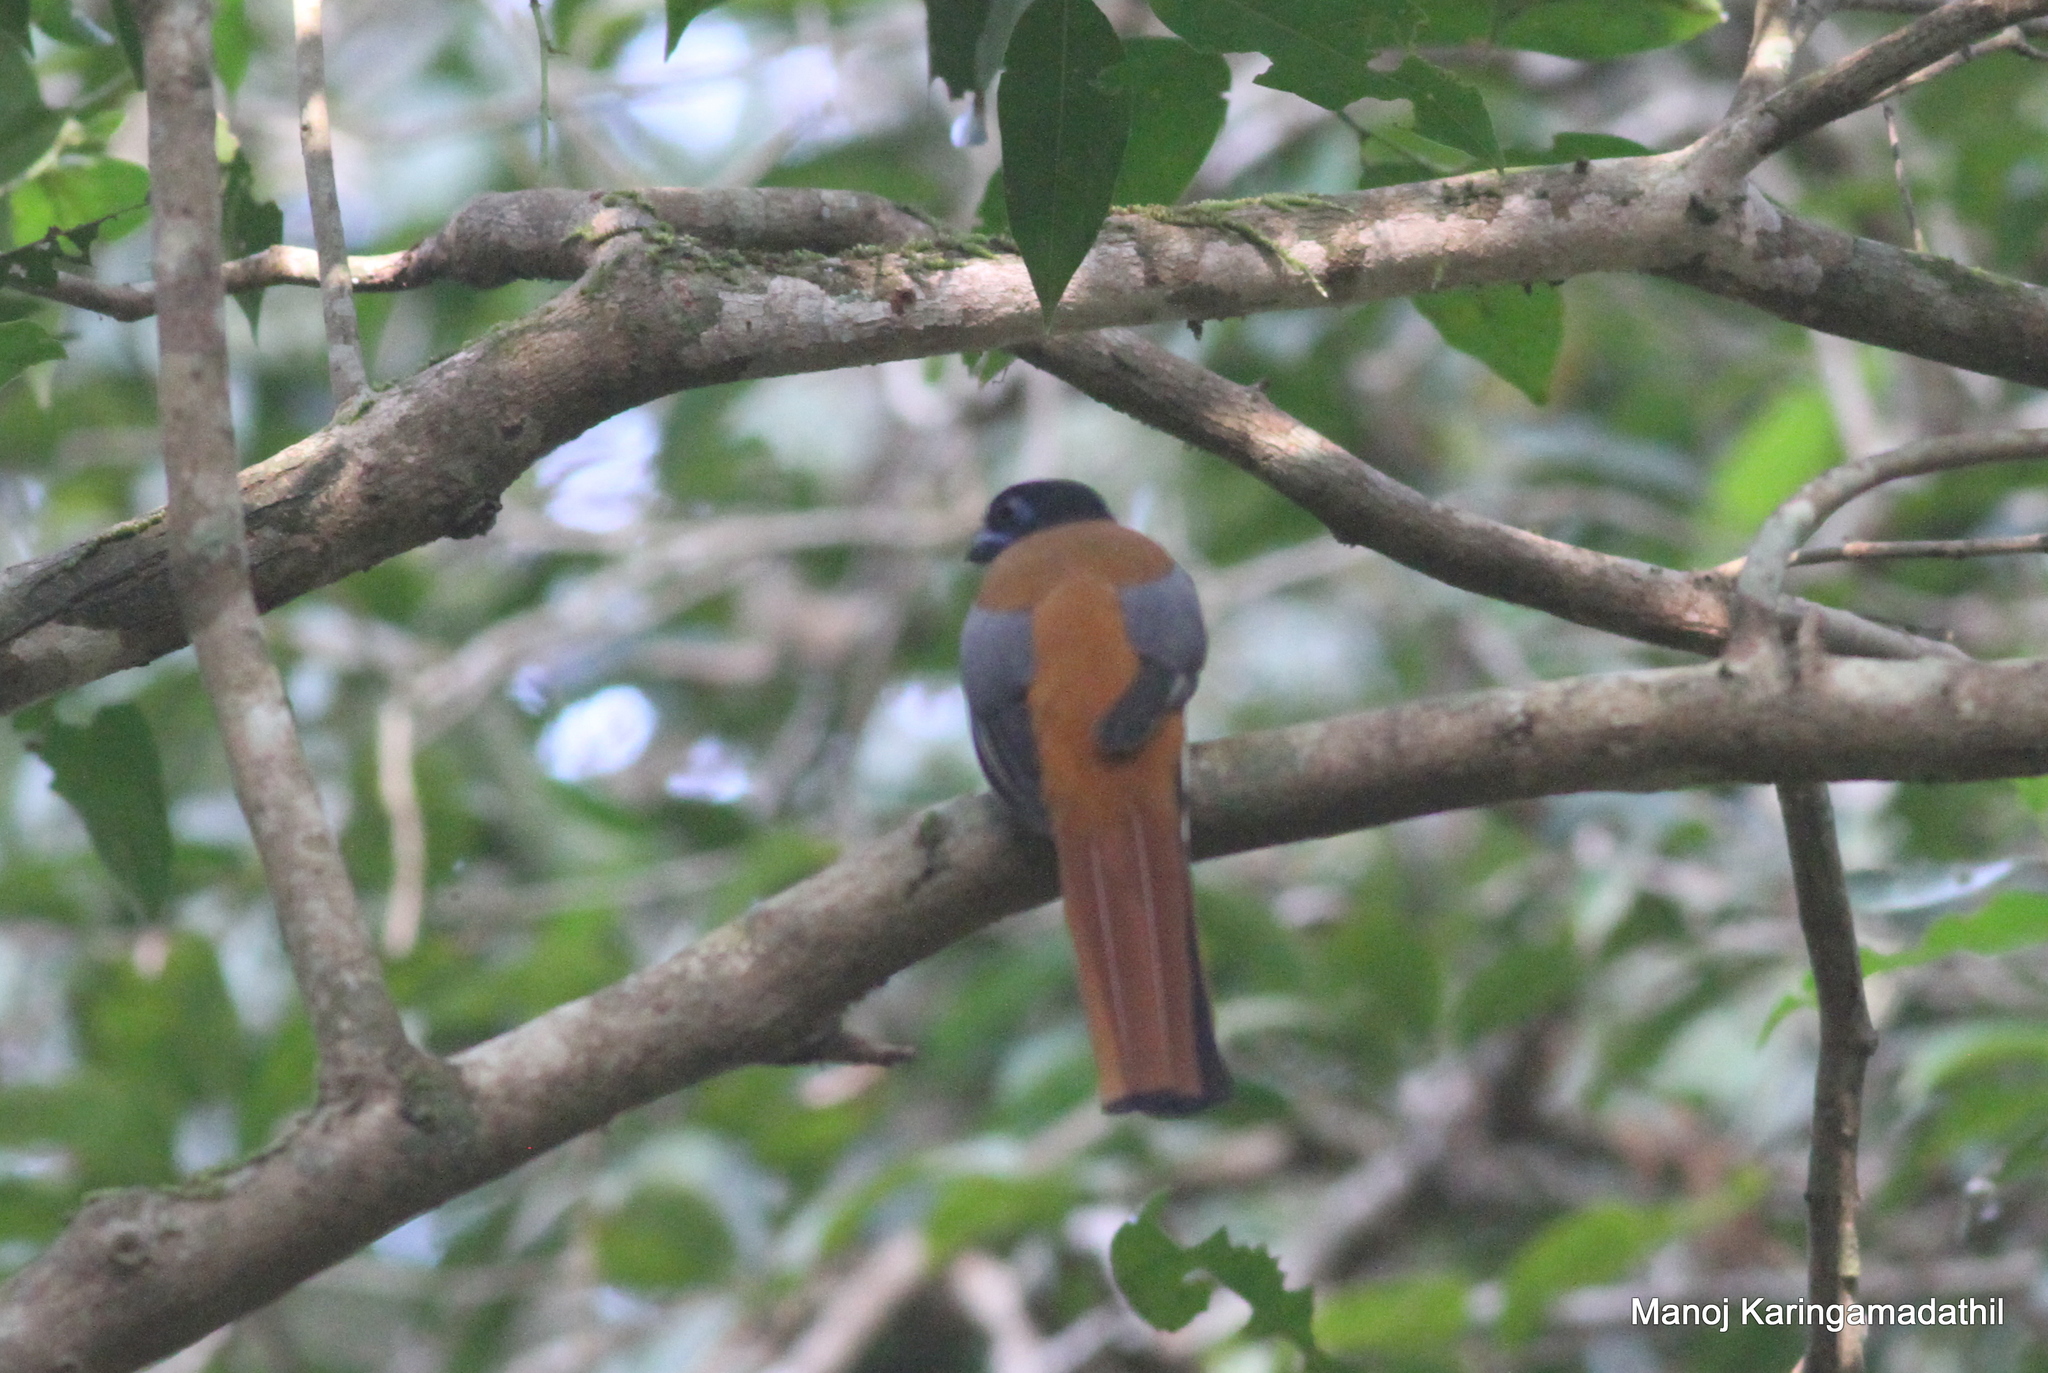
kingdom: Animalia
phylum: Chordata
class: Aves
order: Trogoniformes
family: Trogonidae
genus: Harpactes
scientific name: Harpactes fasciatus
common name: Malabar trogon
